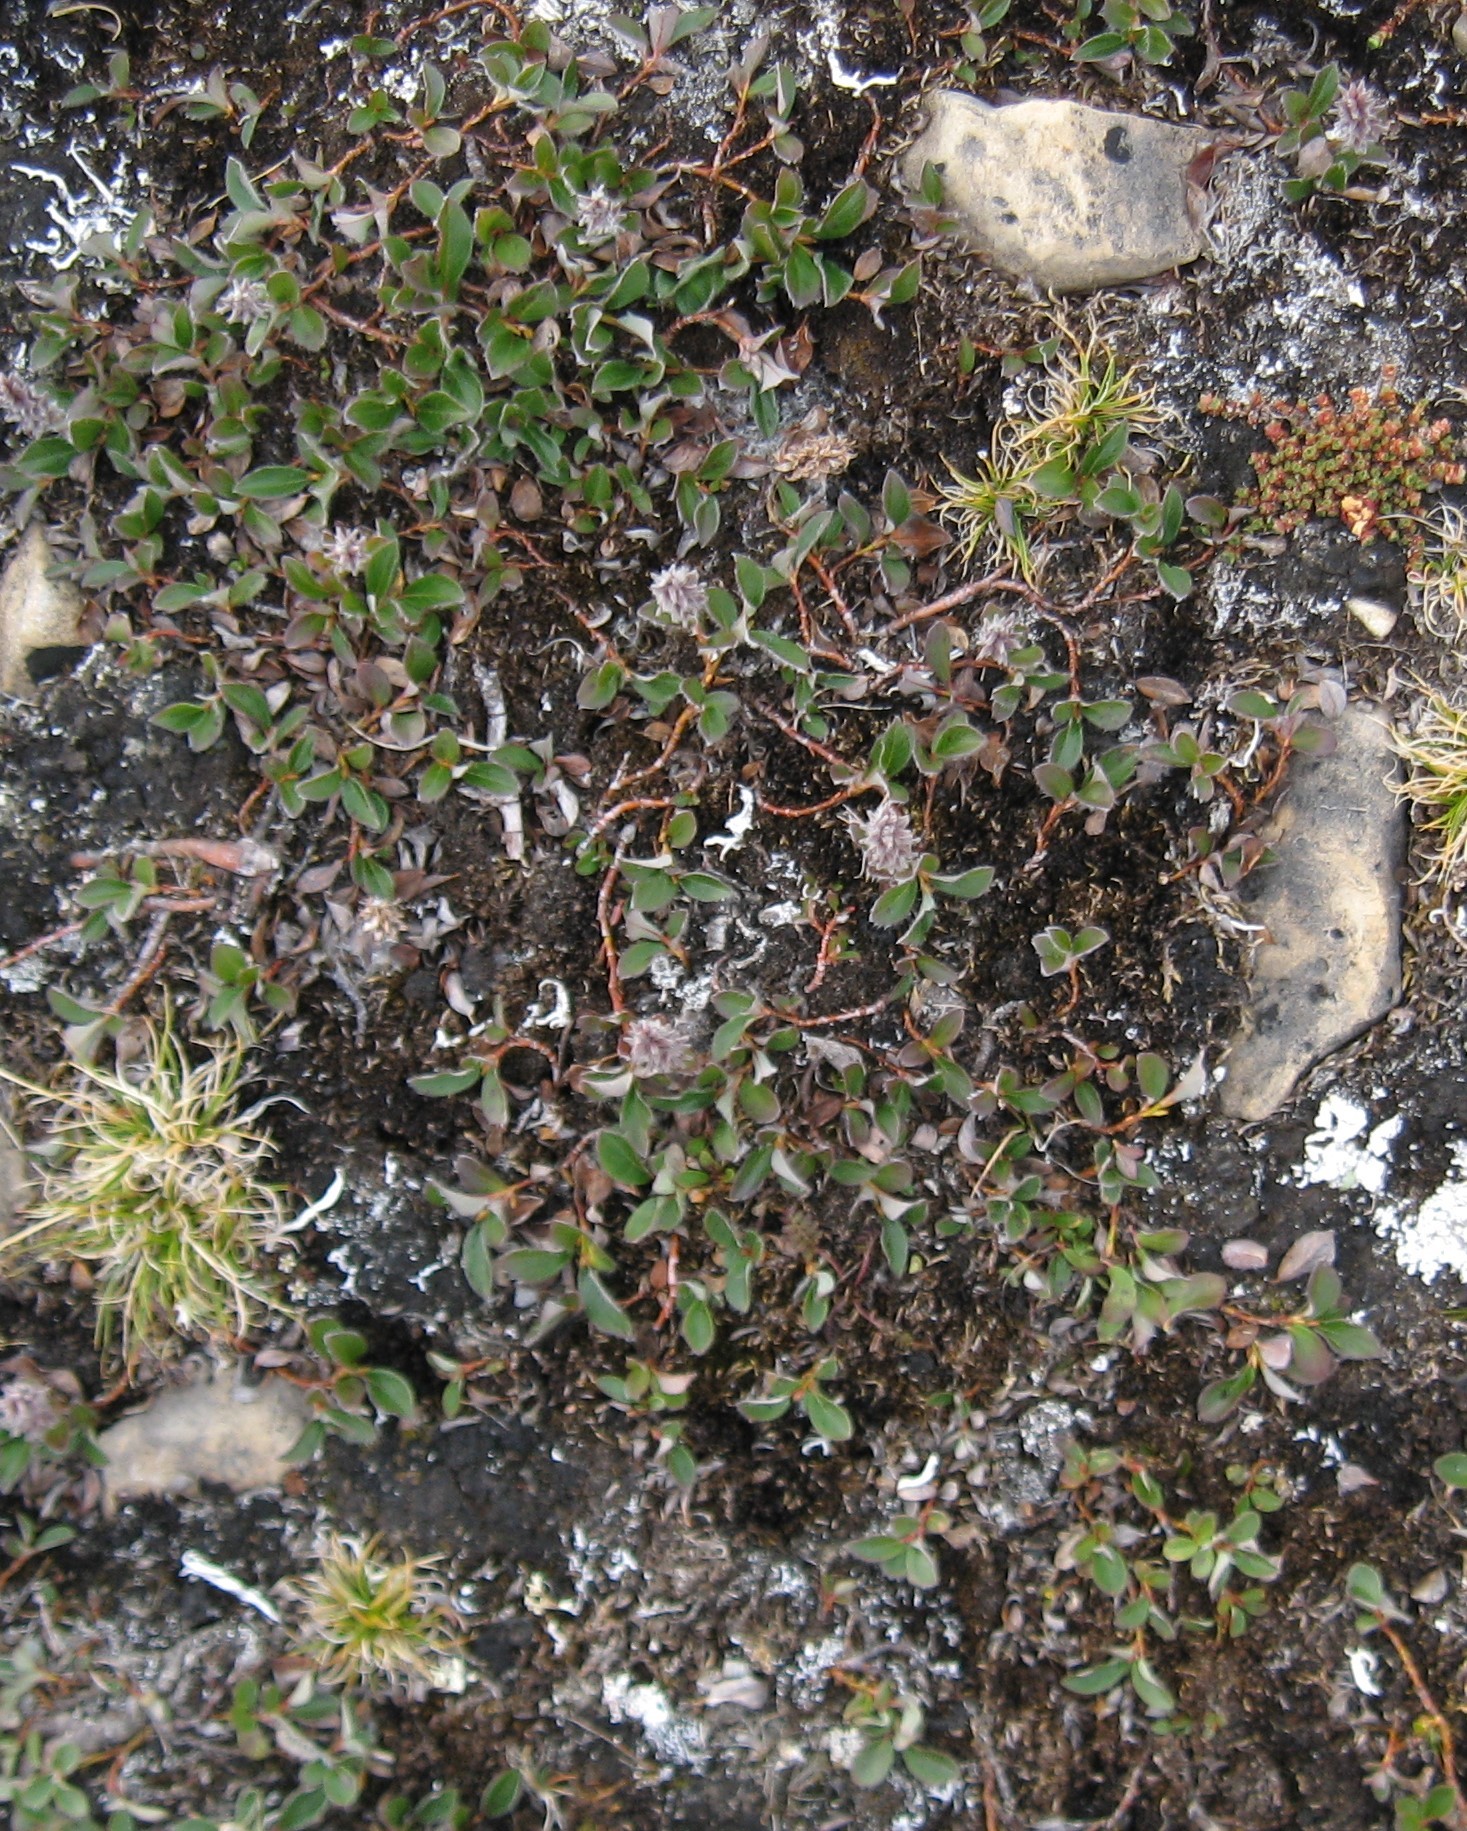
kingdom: Plantae
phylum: Tracheophyta
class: Magnoliopsida
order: Malpighiales
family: Salicaceae
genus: Salix
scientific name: Salix arctica
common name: Arctic willow
